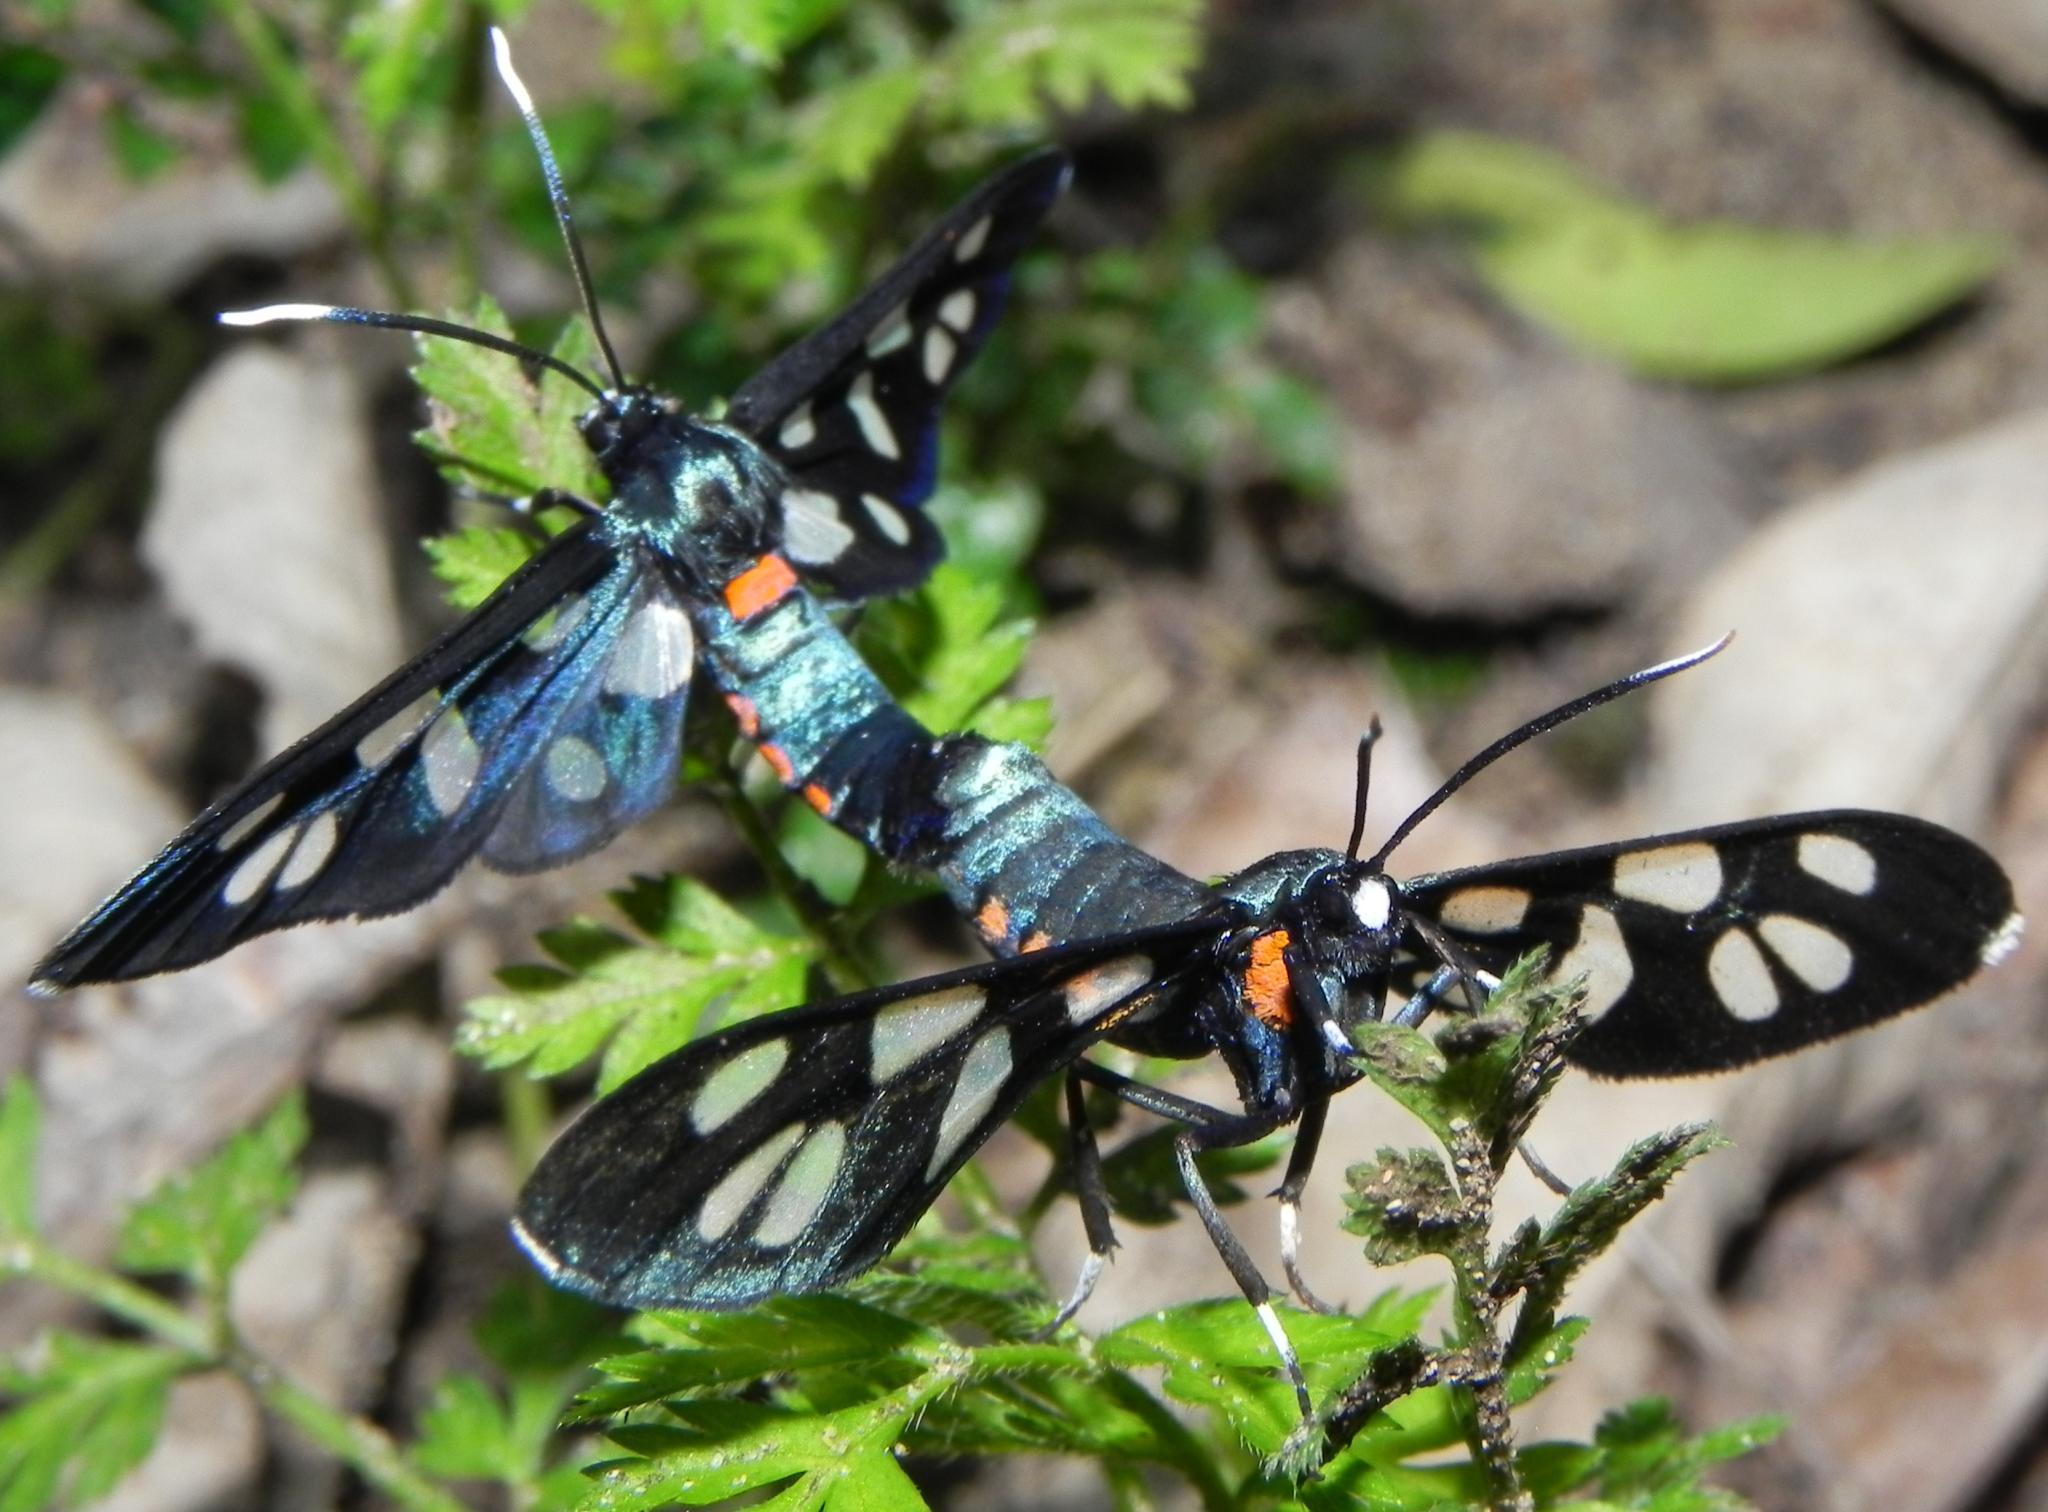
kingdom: Animalia
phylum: Arthropoda
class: Insecta
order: Lepidoptera
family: Erebidae
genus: Amata
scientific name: Amata kuhlweini
